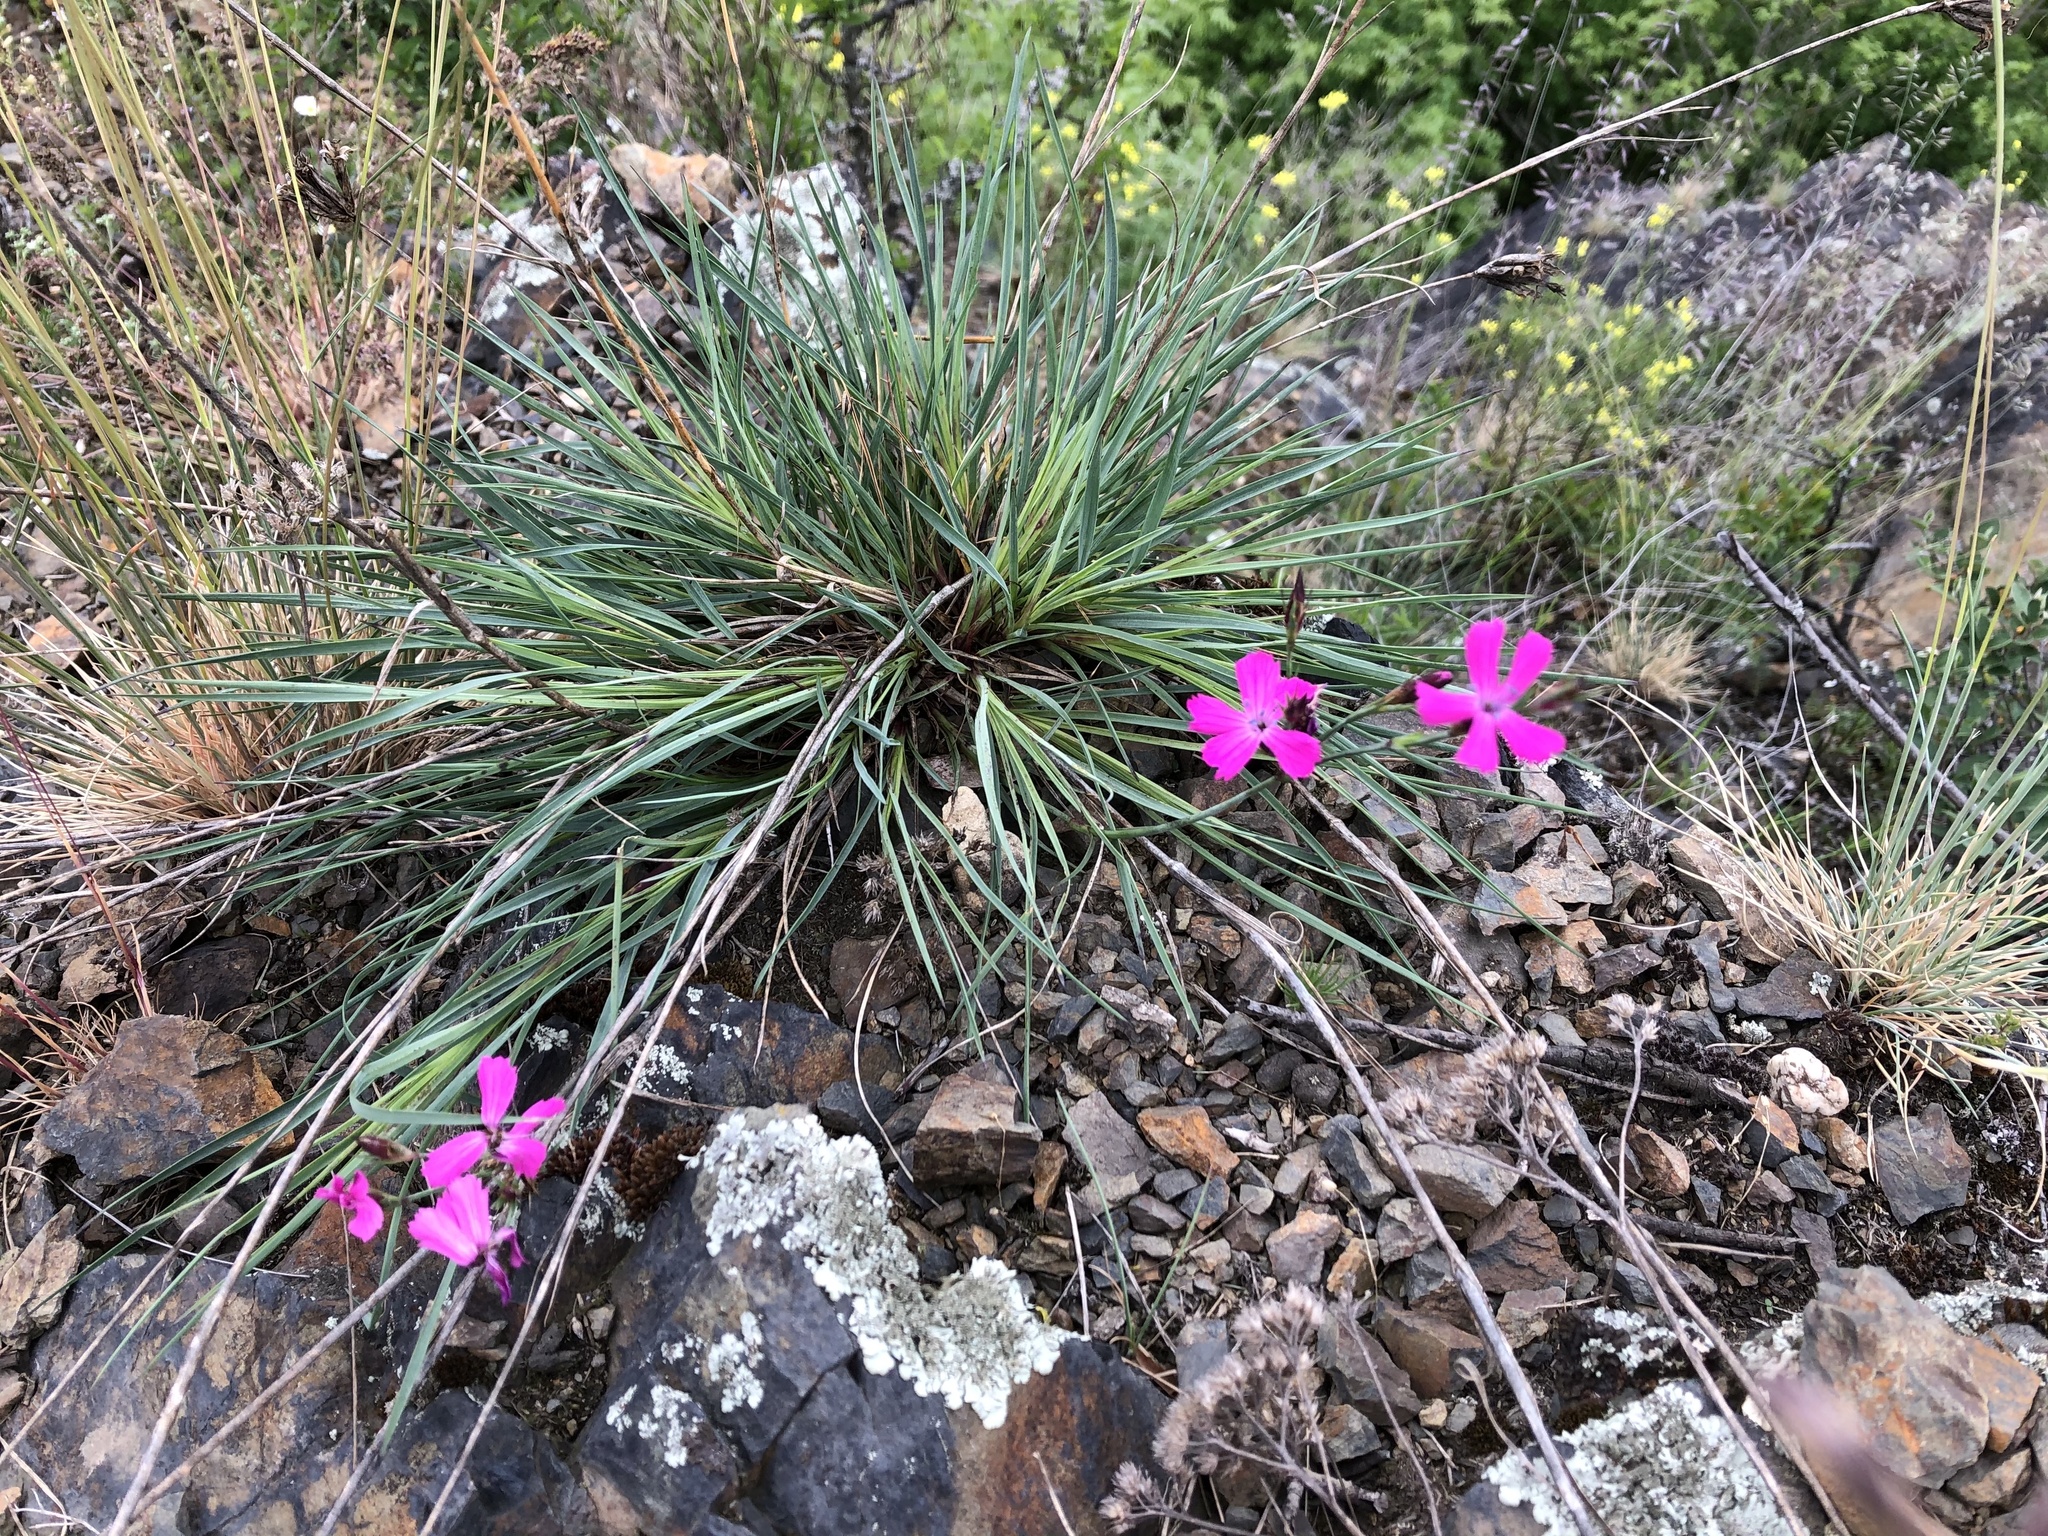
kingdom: Plantae
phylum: Tracheophyta
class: Magnoliopsida
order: Caryophyllales
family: Caryophyllaceae
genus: Dianthus
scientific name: Dianthus carthusianorum
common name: Carthusian pink
